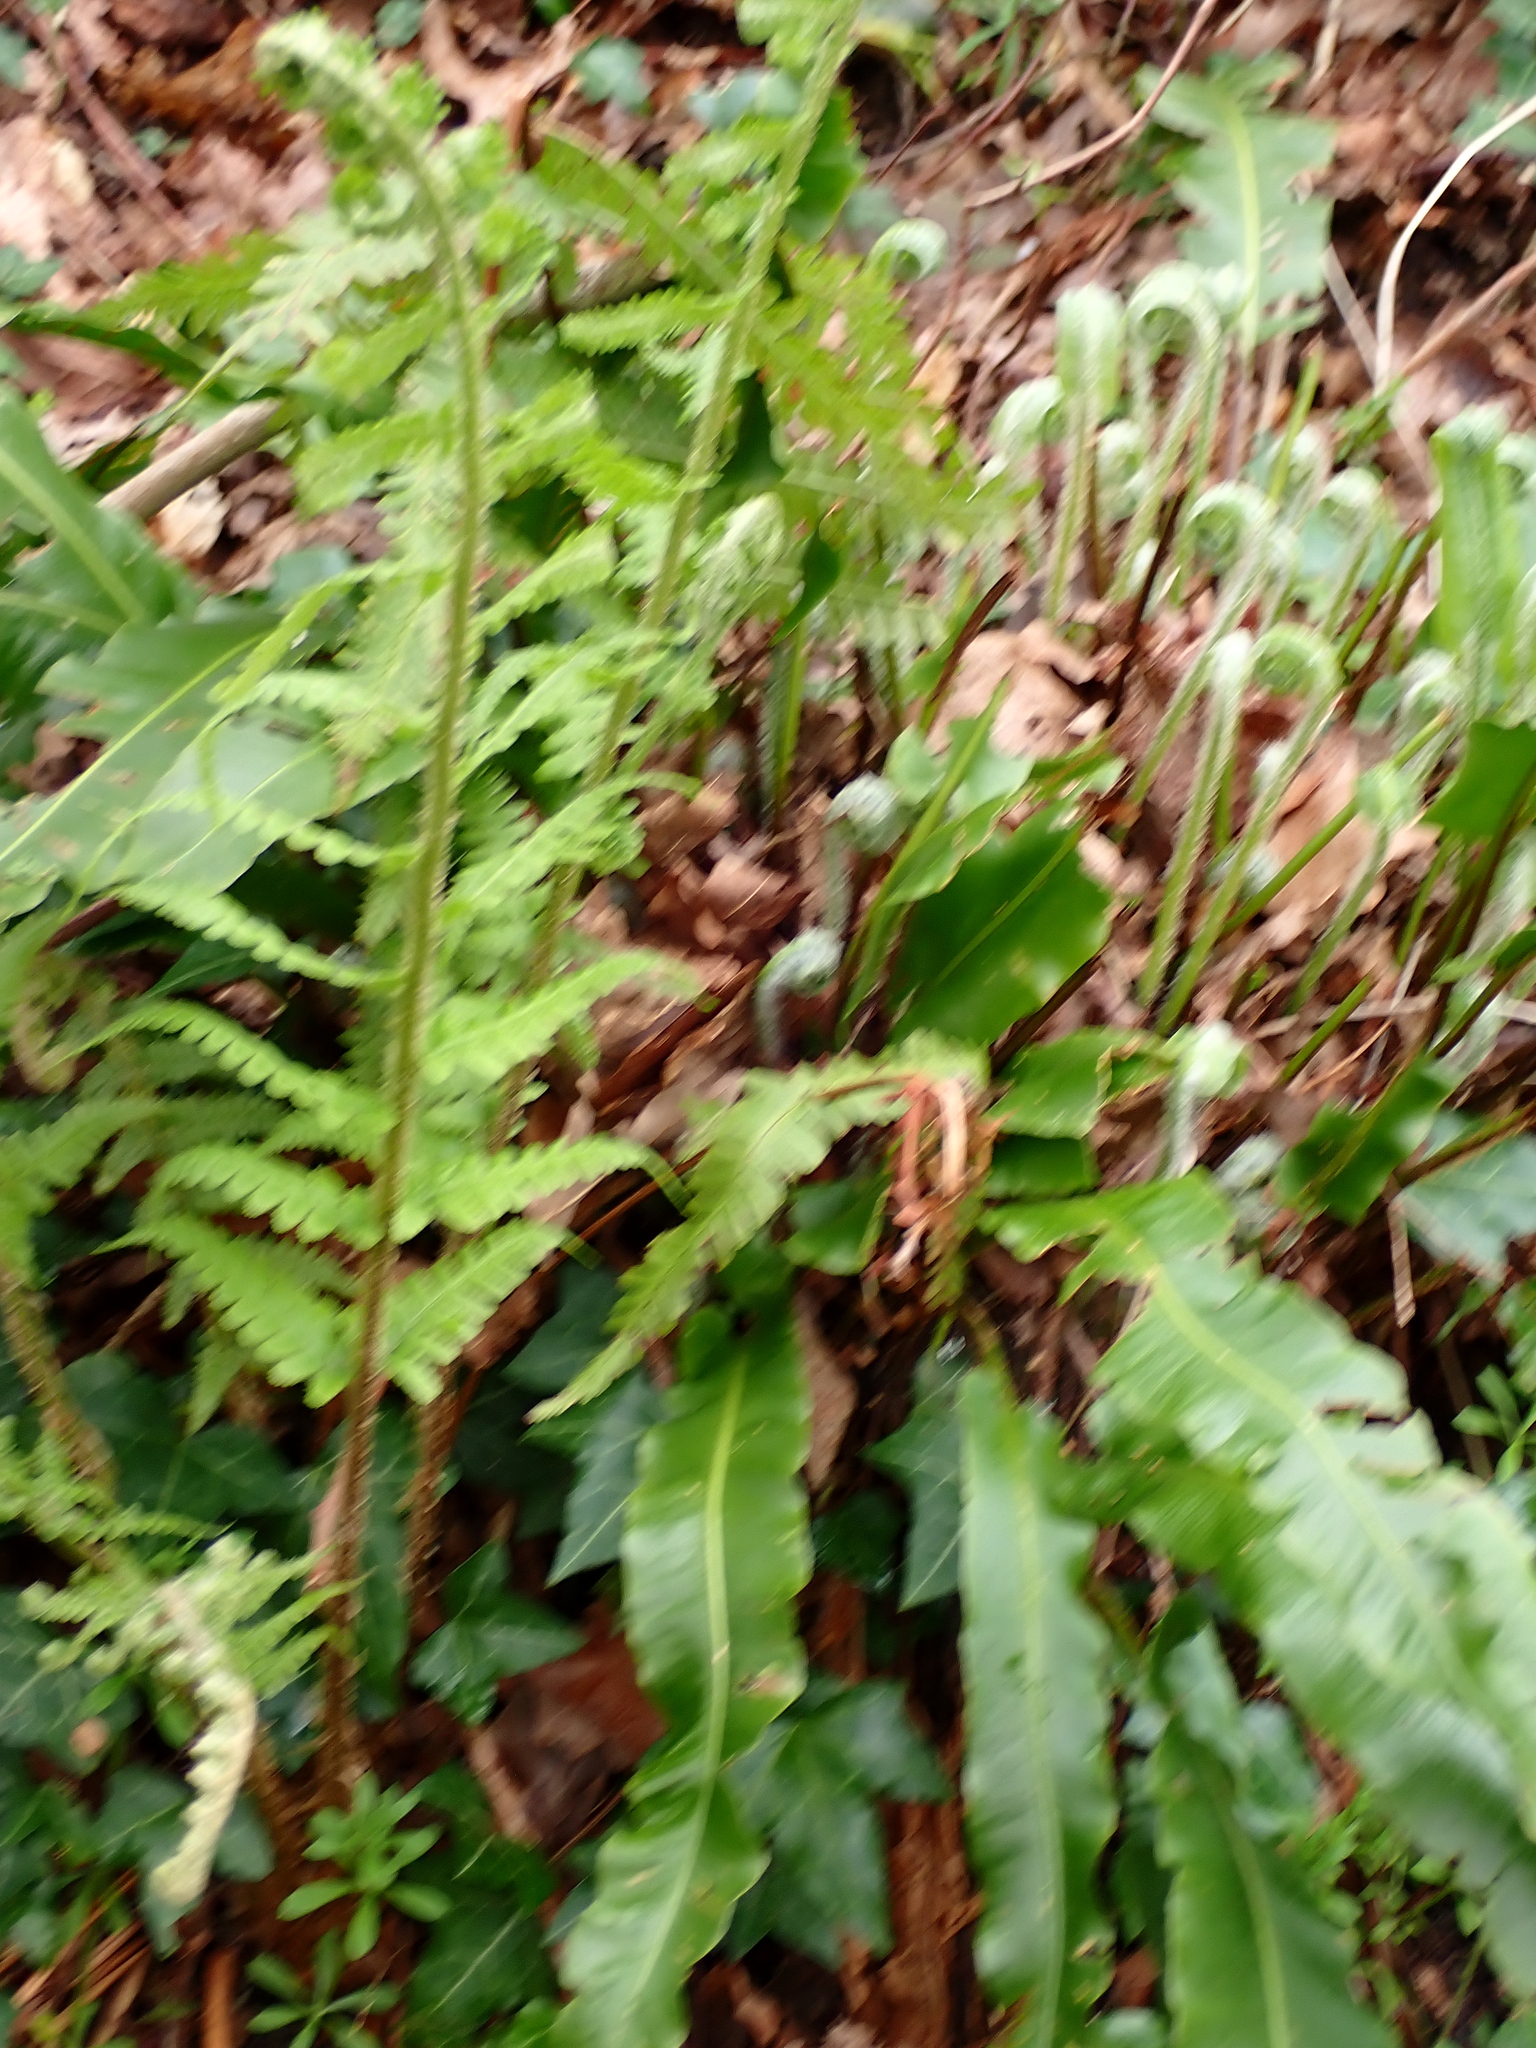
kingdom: Plantae
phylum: Tracheophyta
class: Polypodiopsida
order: Polypodiales
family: Aspleniaceae
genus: Asplenium
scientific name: Asplenium scolopendrium
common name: Hart's-tongue fern
